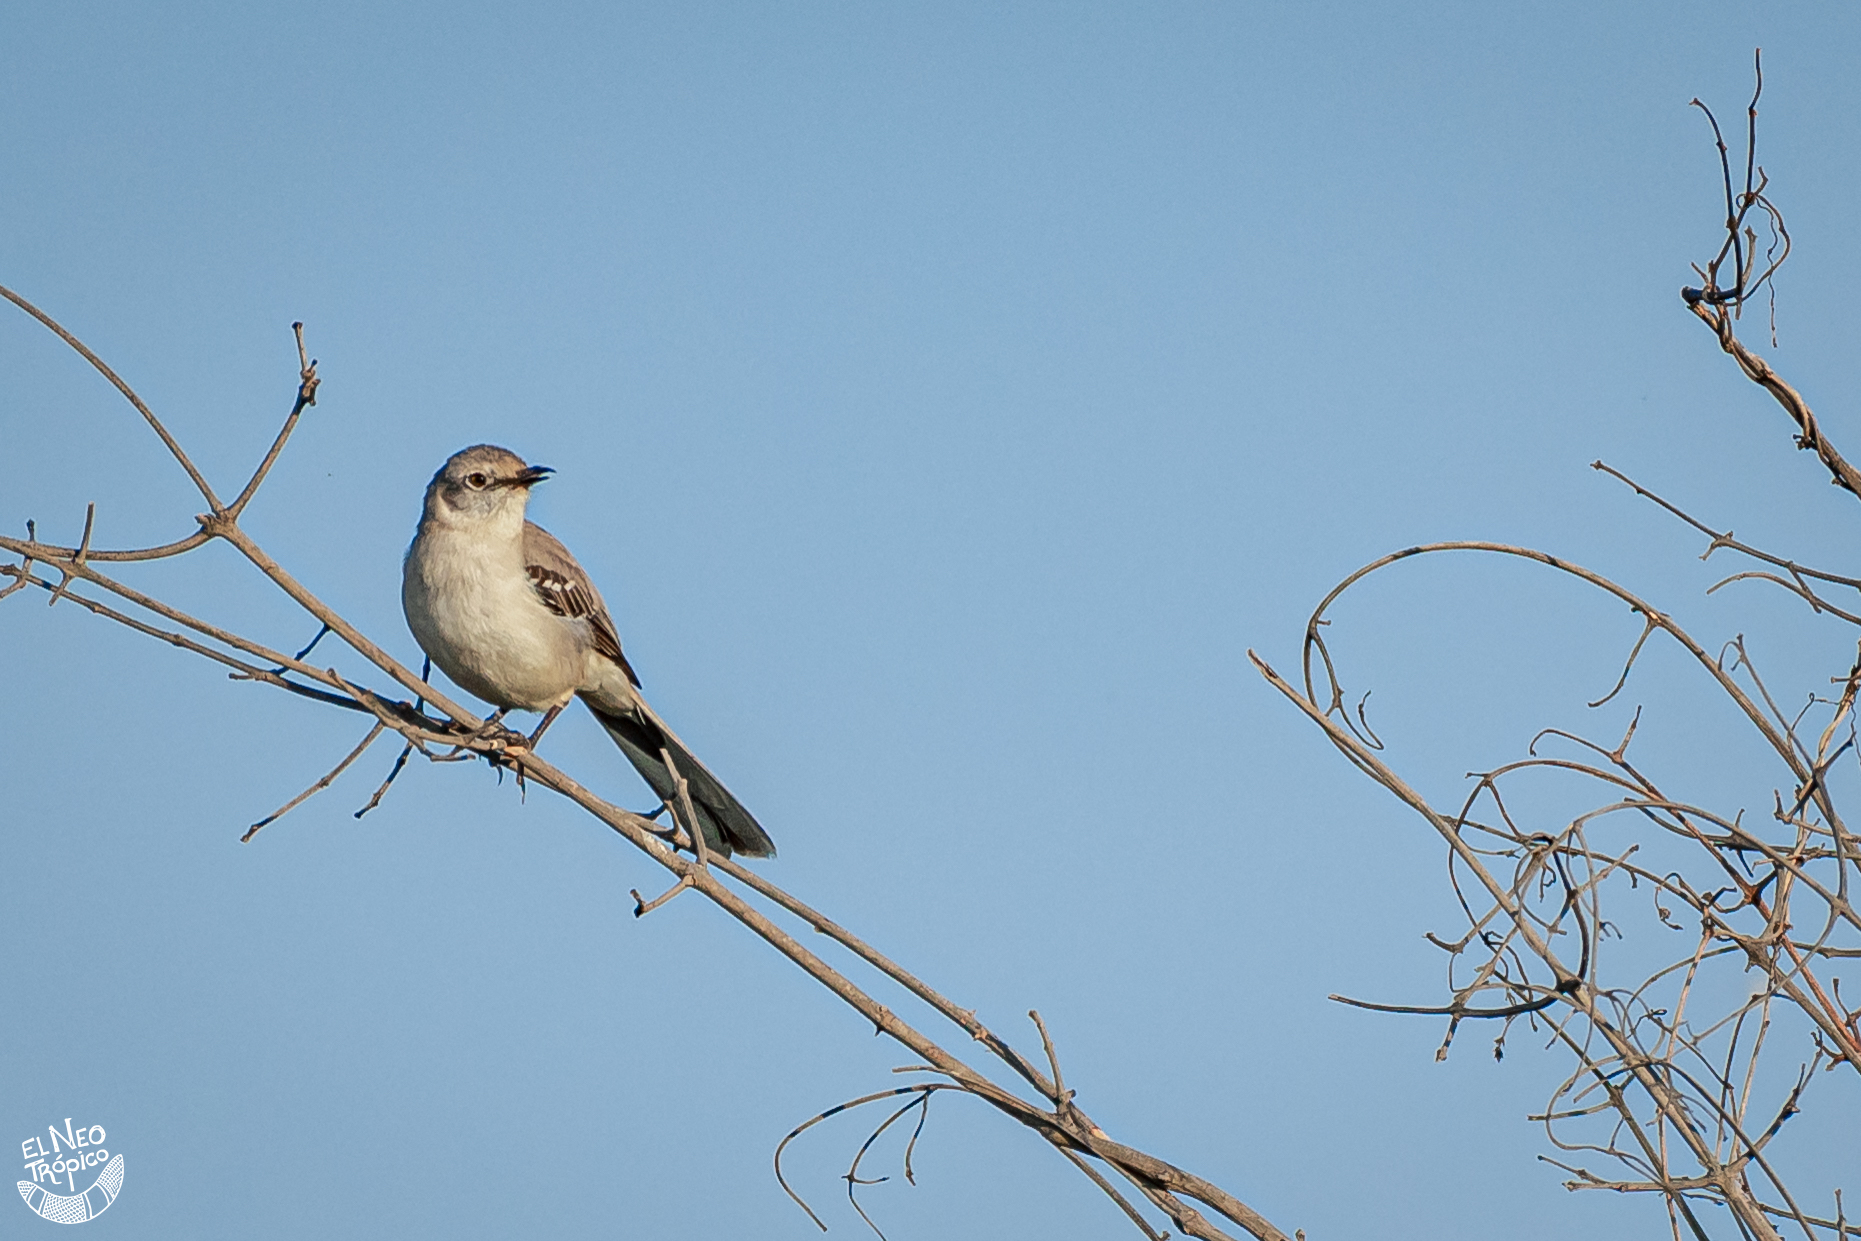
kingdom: Animalia
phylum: Chordata
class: Aves
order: Passeriformes
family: Mimidae
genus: Mimus
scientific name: Mimus gilvus
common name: Tropical mockingbird
